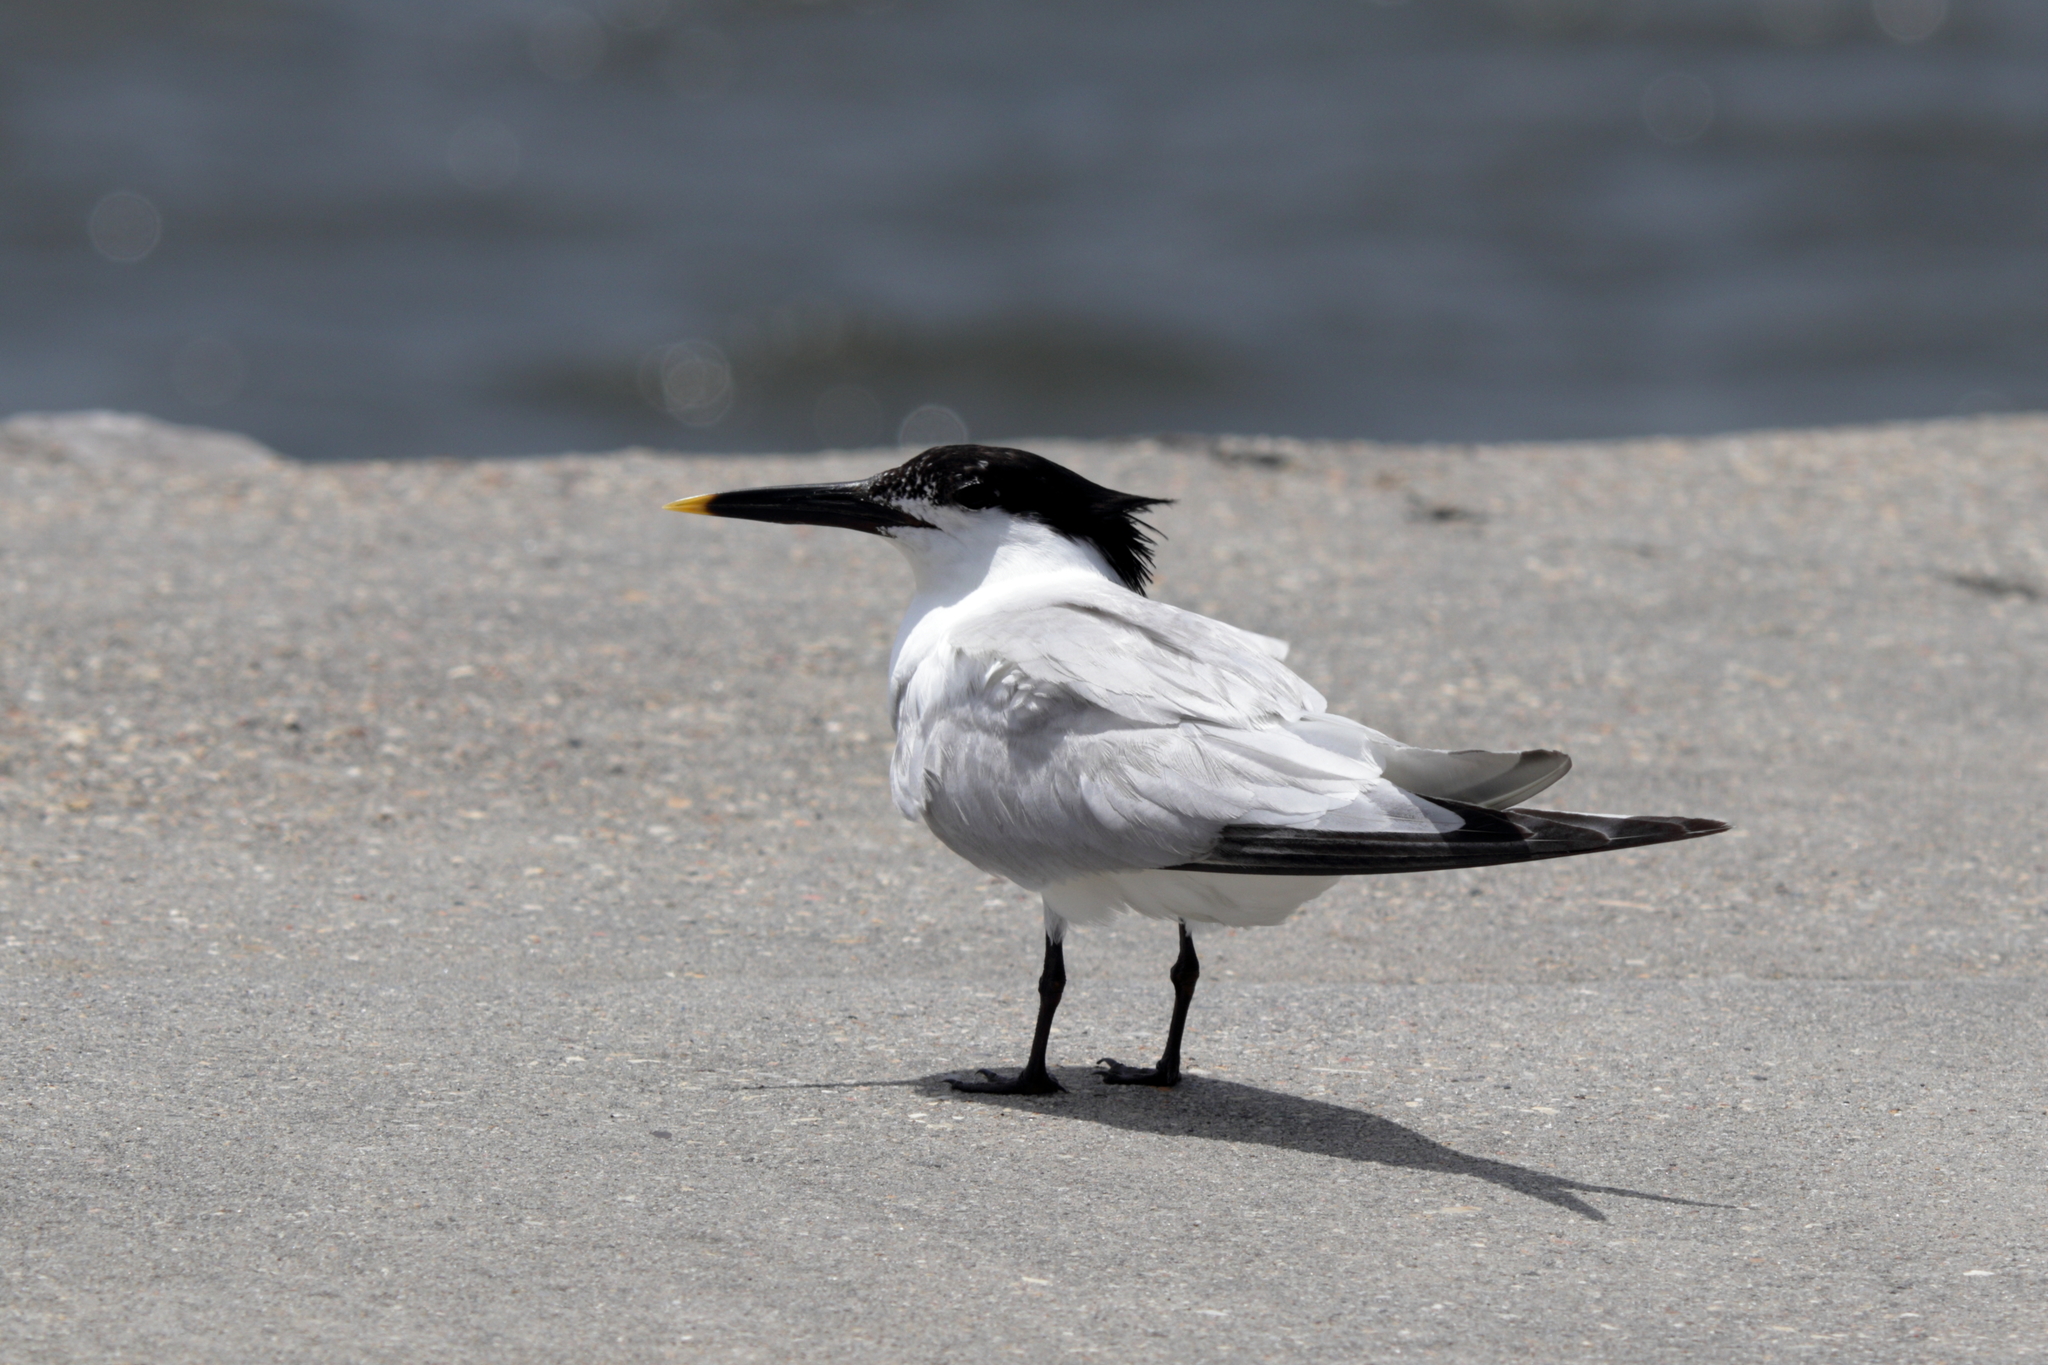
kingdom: Animalia
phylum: Chordata
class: Aves
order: Charadriiformes
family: Laridae
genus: Thalasseus
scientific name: Thalasseus sandvicensis
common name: Sandwich tern
